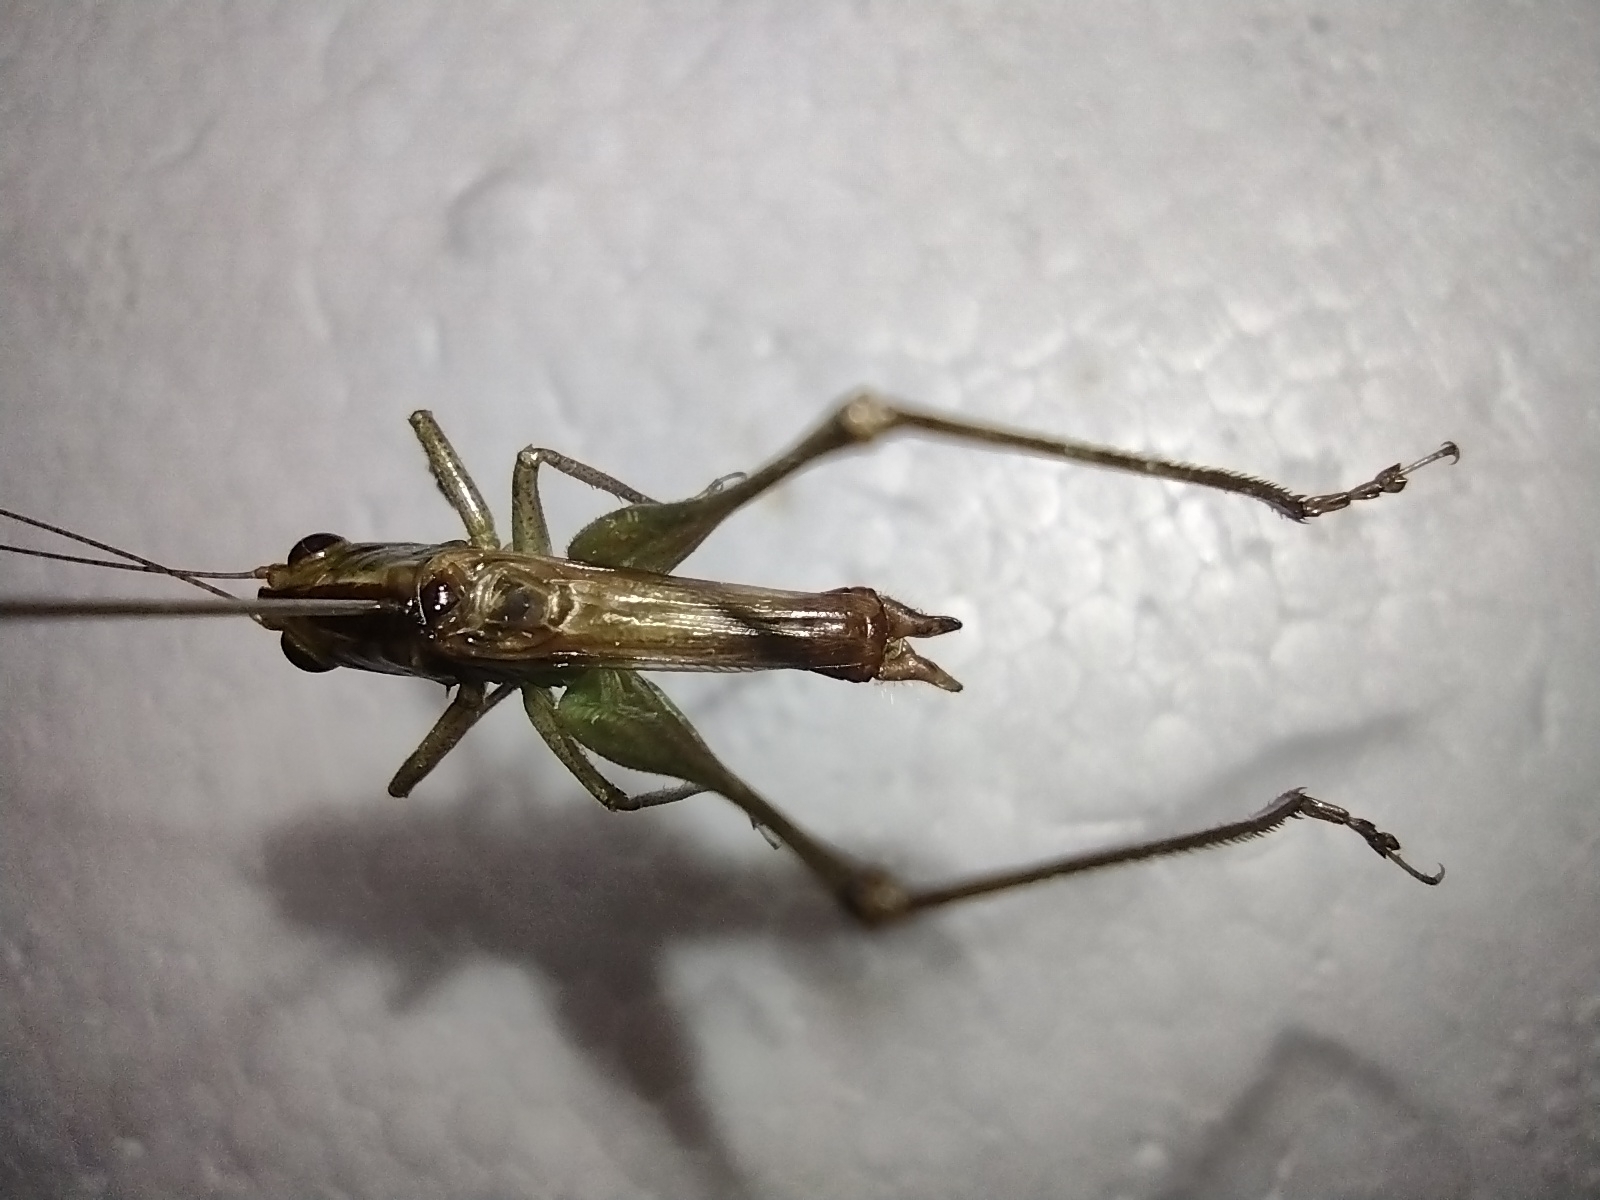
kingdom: Animalia
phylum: Arthropoda
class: Insecta
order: Orthoptera
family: Tettigoniidae
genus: Conocephalus
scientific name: Conocephalus brevipennis
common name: Short-winged meadow katydid
